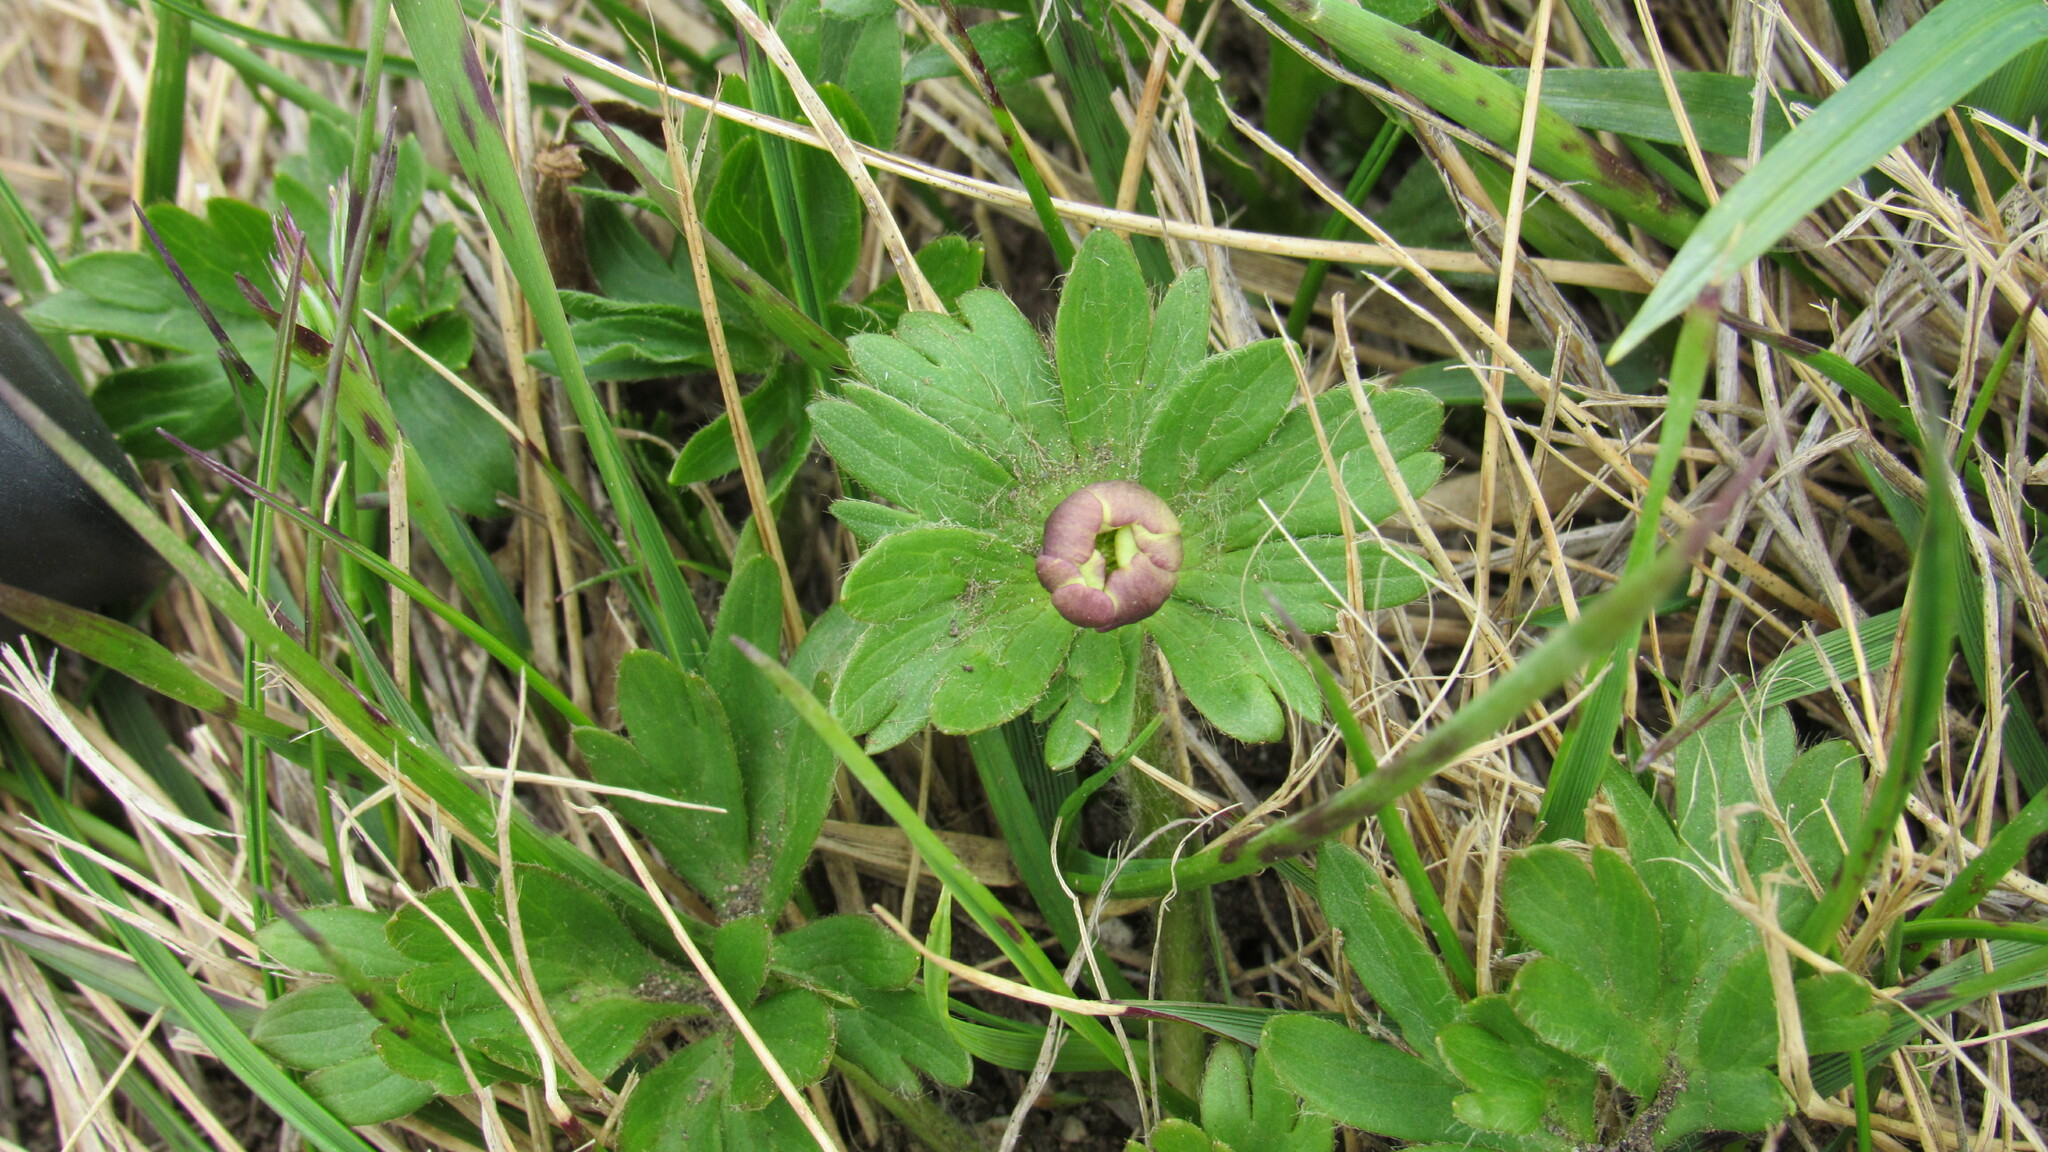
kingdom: Plantae
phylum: Tracheophyta
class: Magnoliopsida
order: Ranunculales
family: Ranunculaceae
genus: Anemonastrum
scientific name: Anemonastrum narcissiflorum
